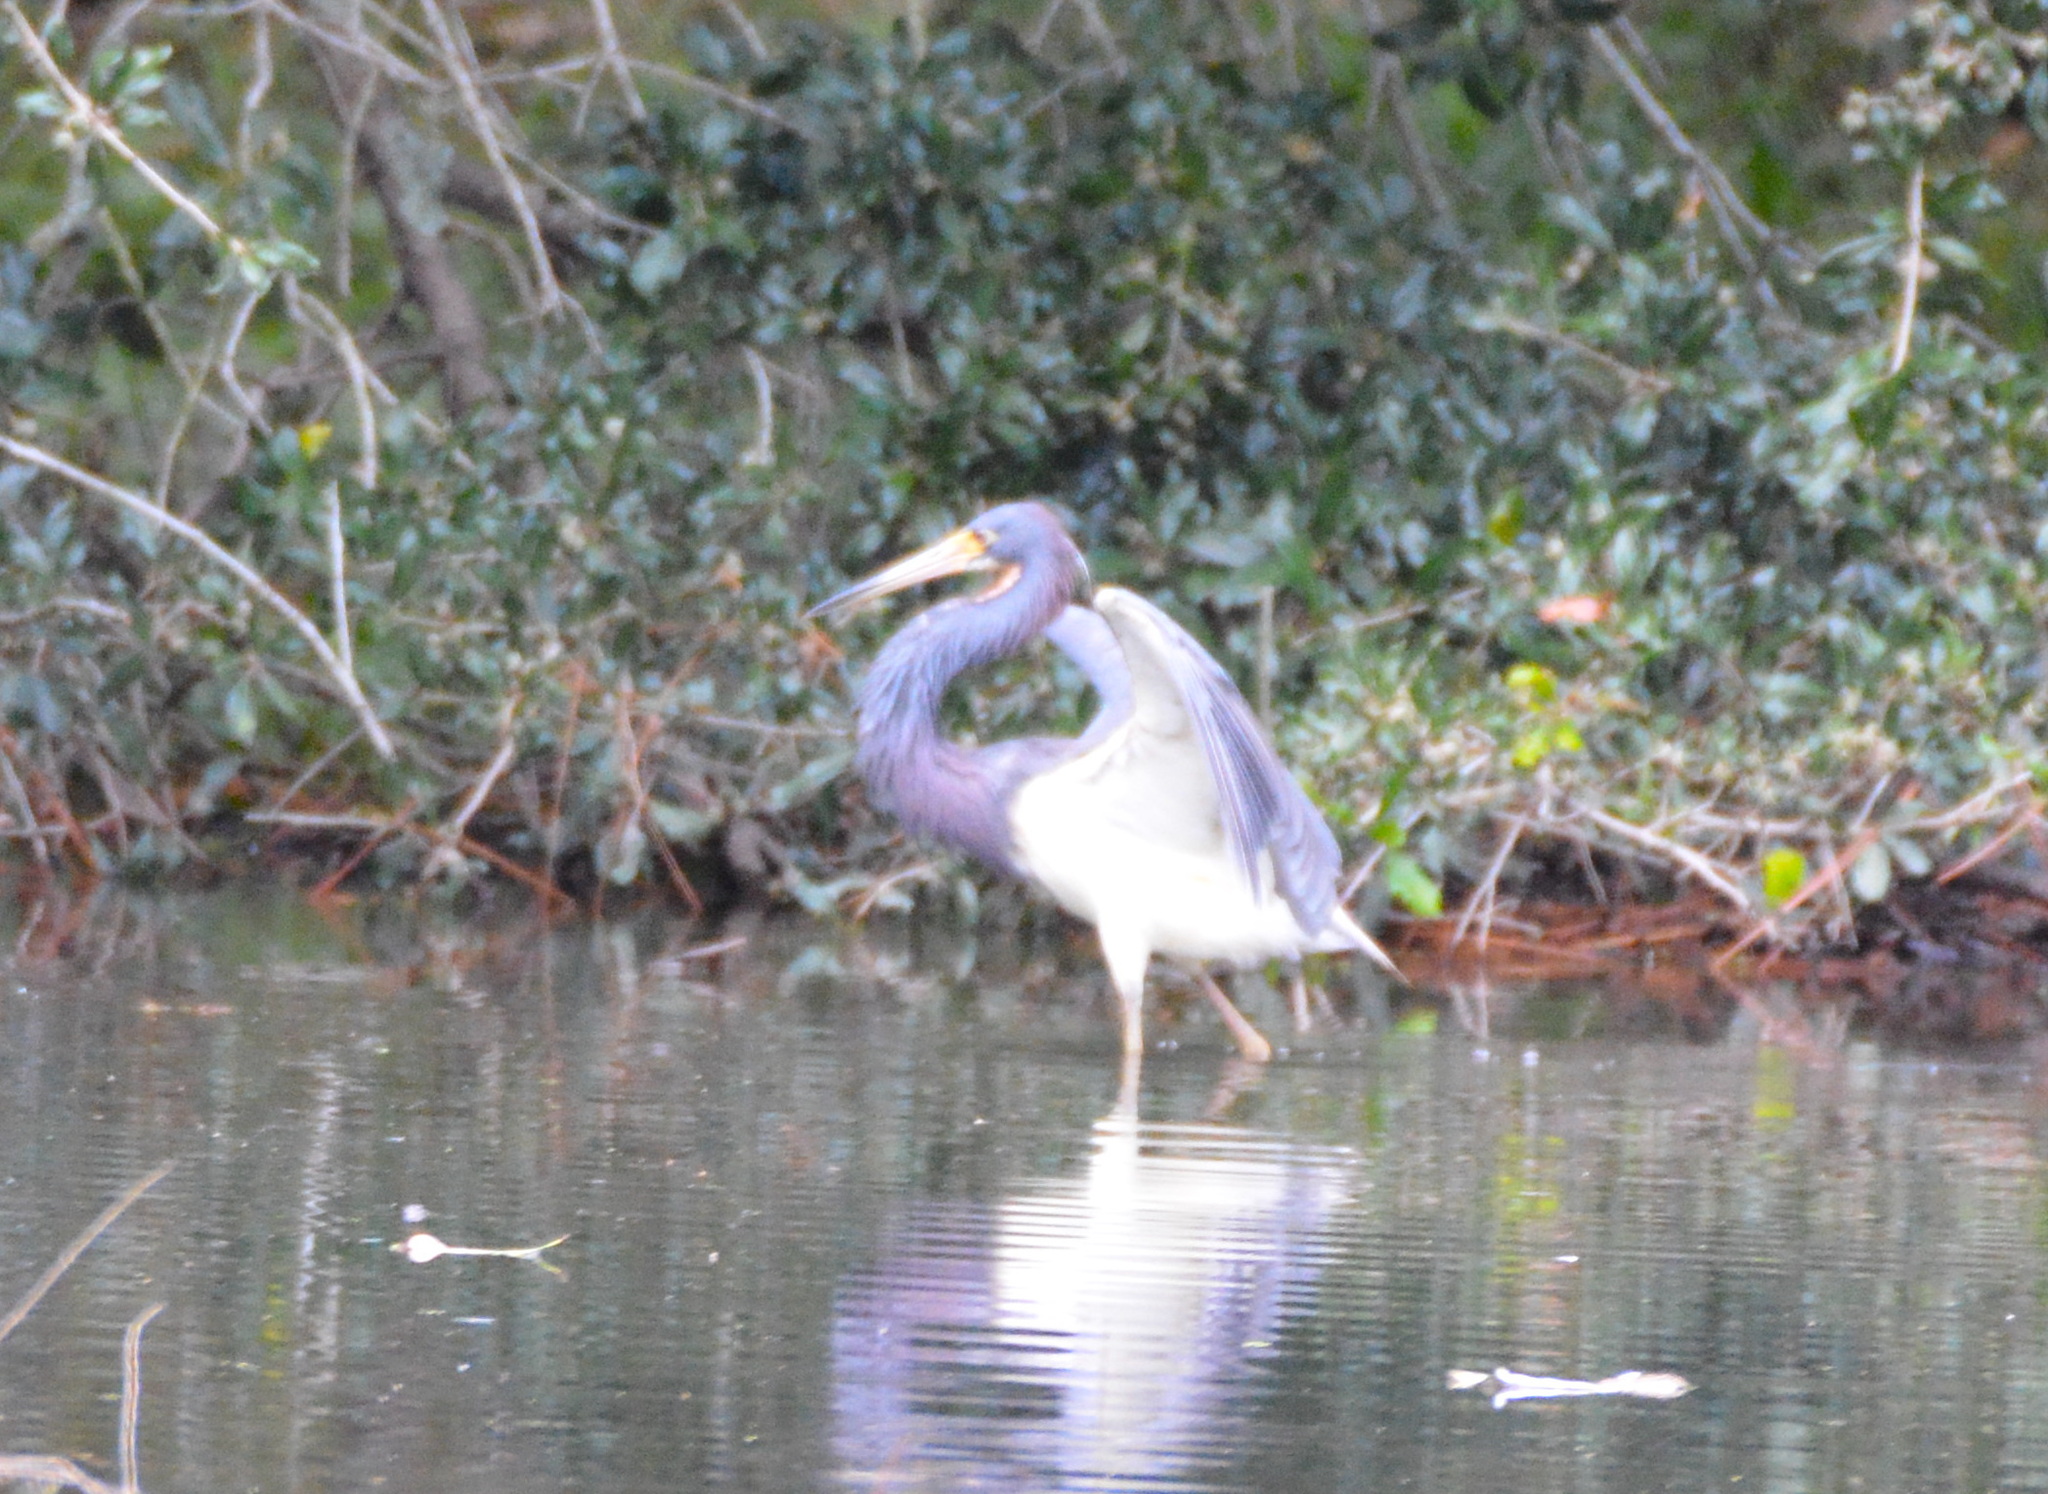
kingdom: Animalia
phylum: Chordata
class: Aves
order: Pelecaniformes
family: Ardeidae
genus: Egretta
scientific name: Egretta tricolor
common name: Tricolored heron
